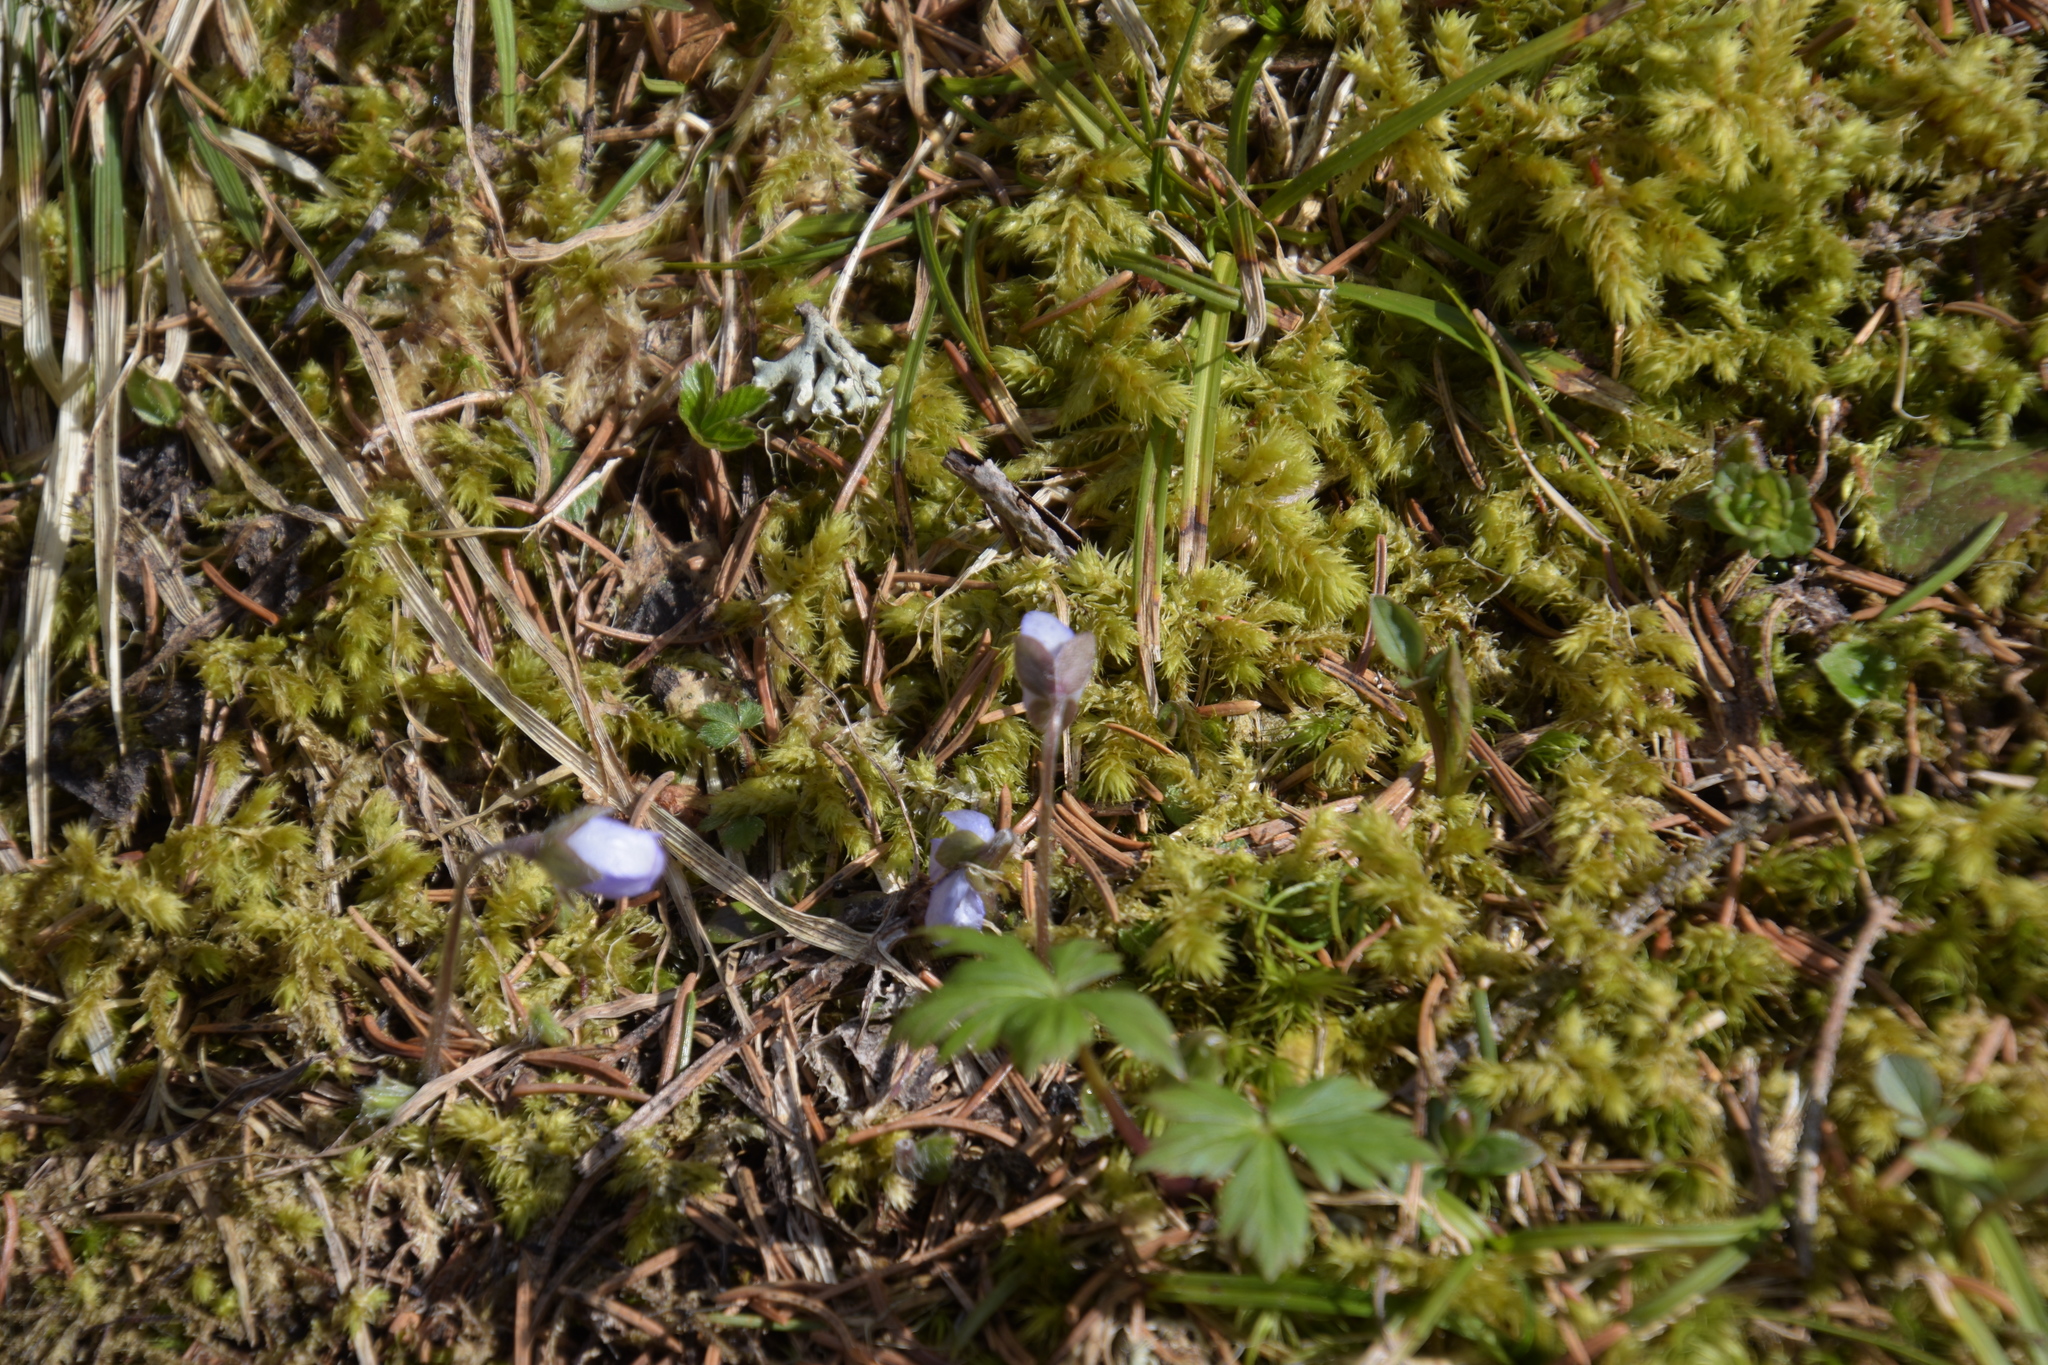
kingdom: Plantae
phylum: Tracheophyta
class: Magnoliopsida
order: Ranunculales
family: Ranunculaceae
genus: Hepatica
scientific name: Hepatica nobilis
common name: Liverleaf
